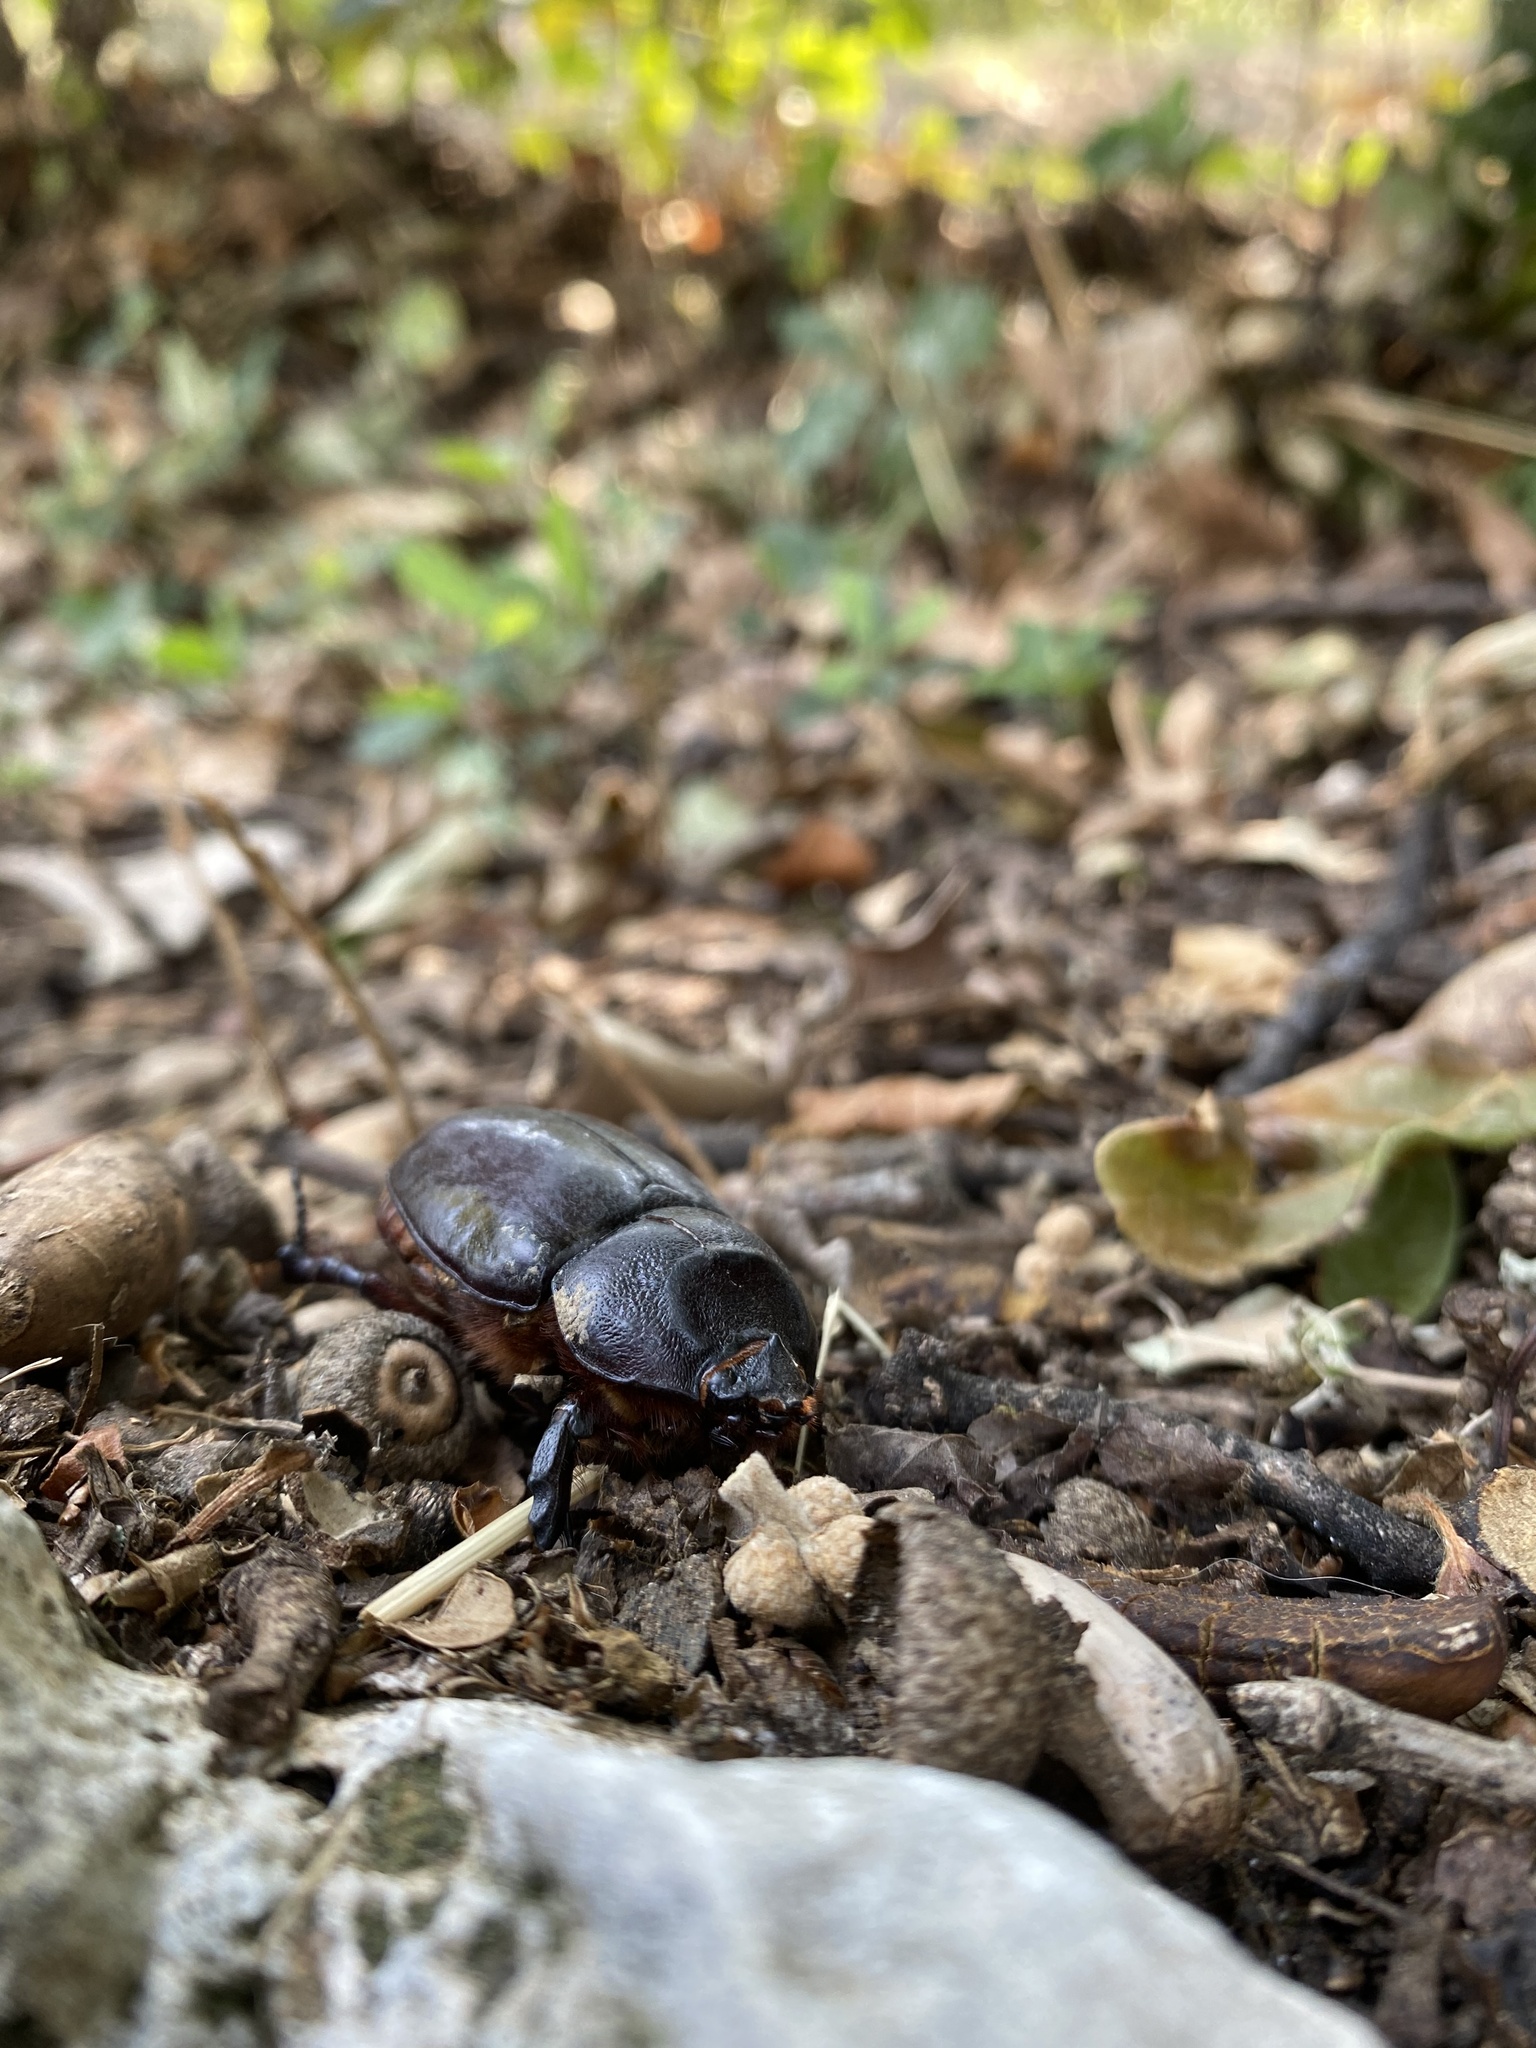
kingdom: Animalia
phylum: Arthropoda
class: Insecta
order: Coleoptera
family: Scarabaeidae
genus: Oryctes
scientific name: Oryctes nasicornis
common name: European rhinoceros beetle
